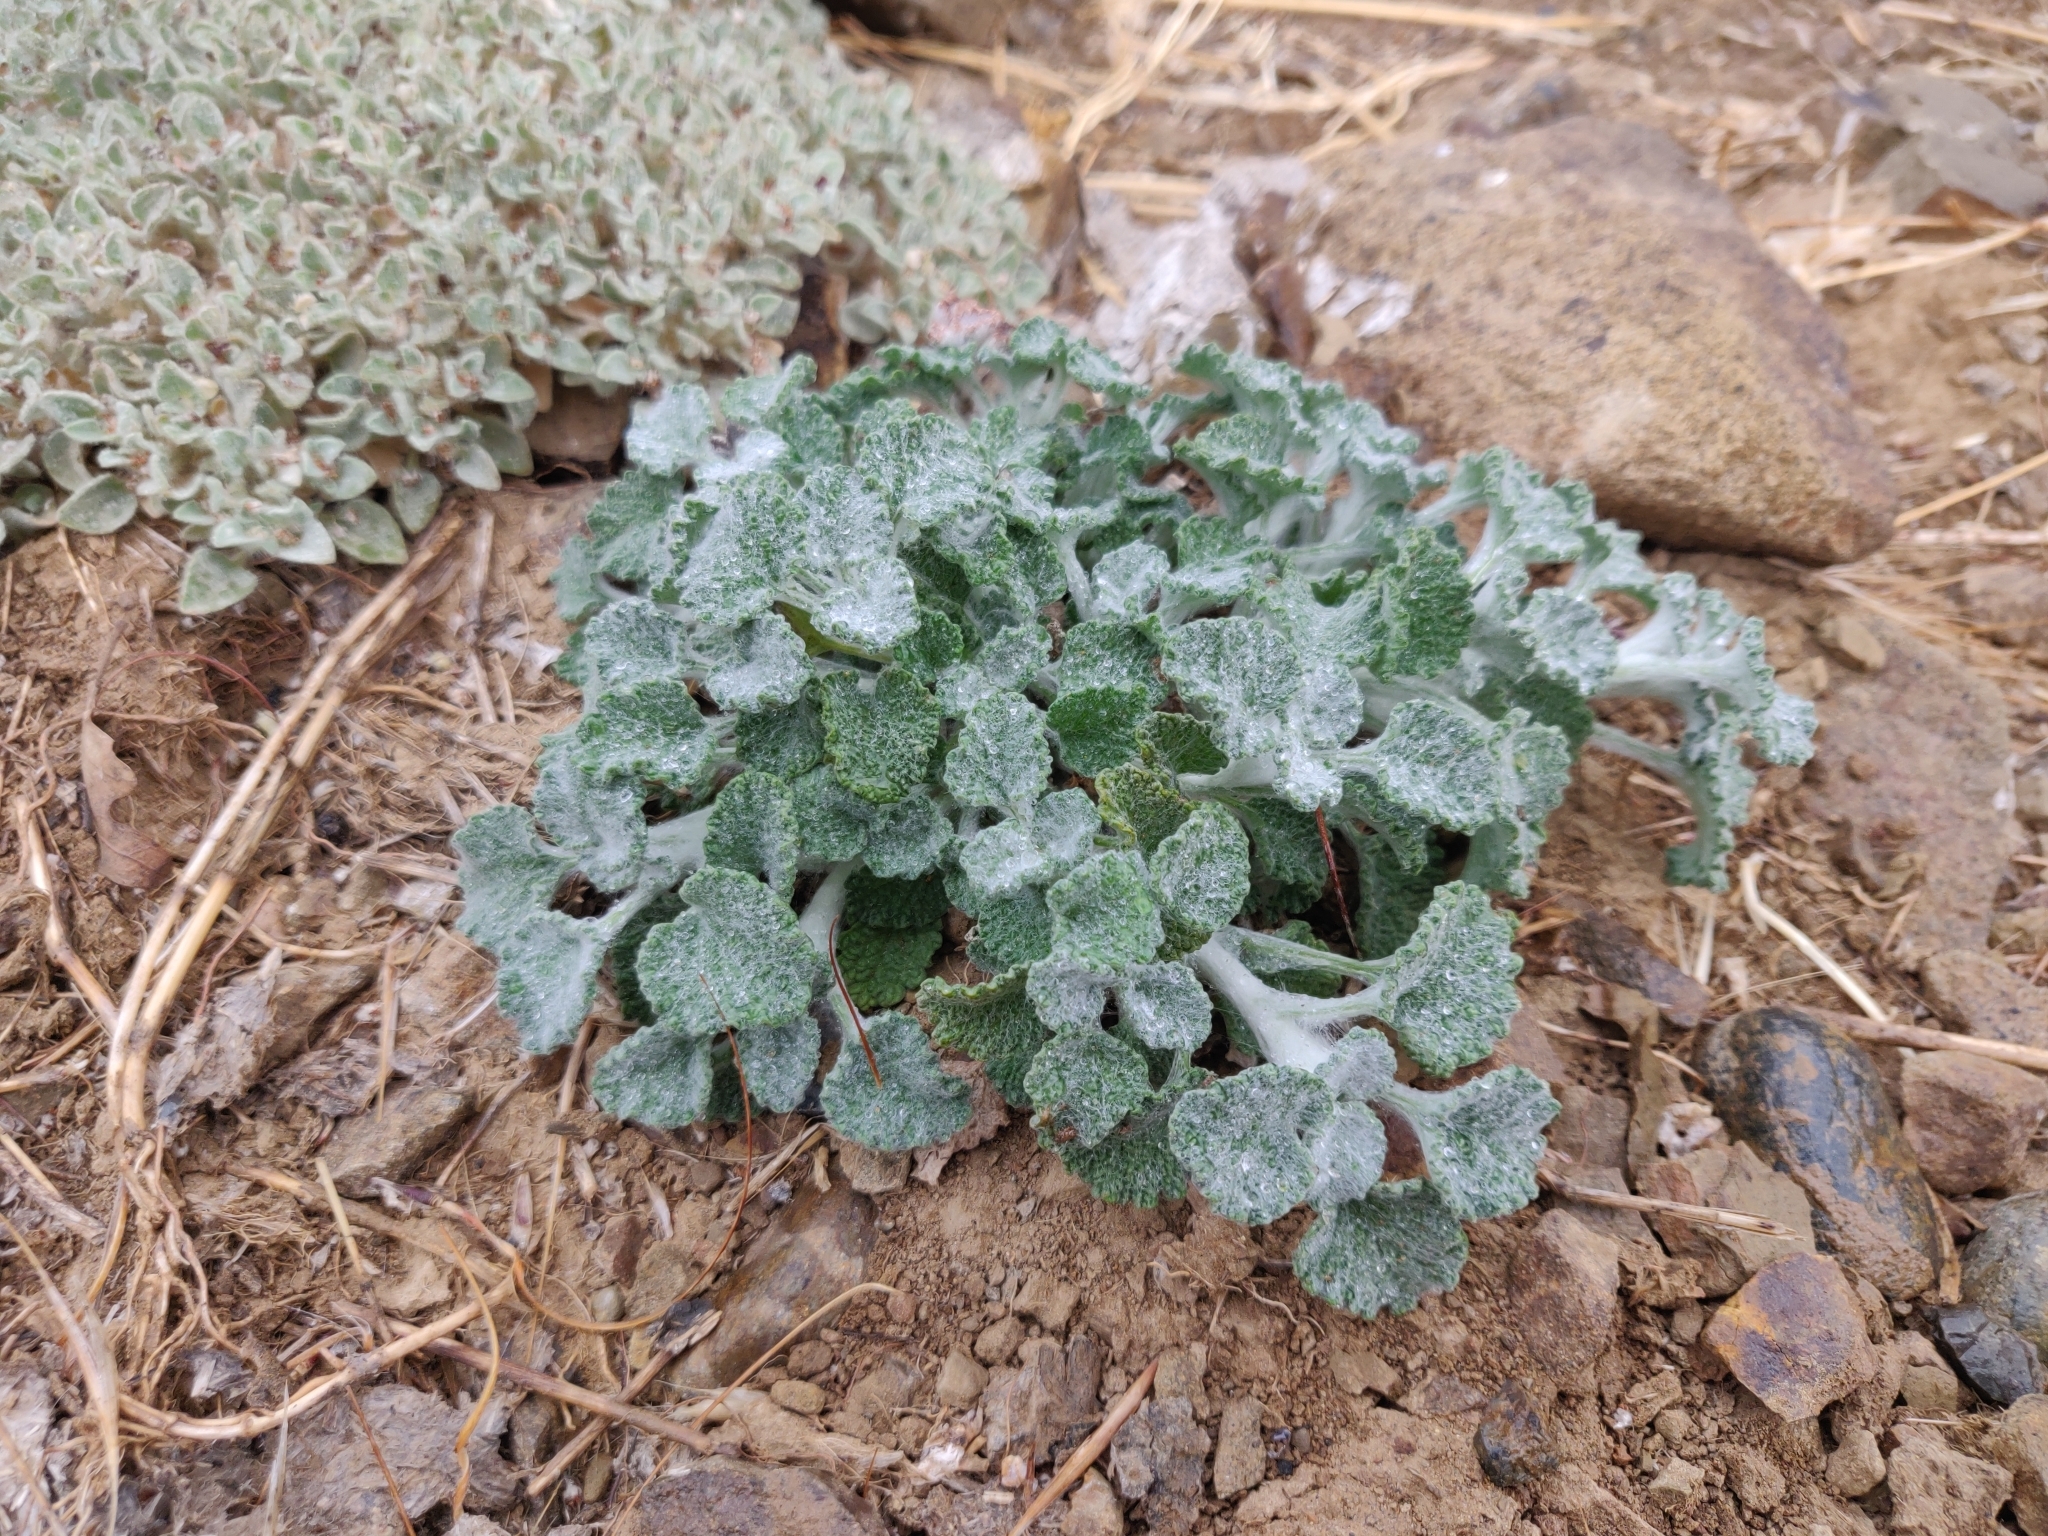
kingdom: Plantae
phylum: Tracheophyta
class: Magnoliopsida
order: Lamiales
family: Lamiaceae
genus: Marrubium
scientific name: Marrubium vulgare
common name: Horehound
